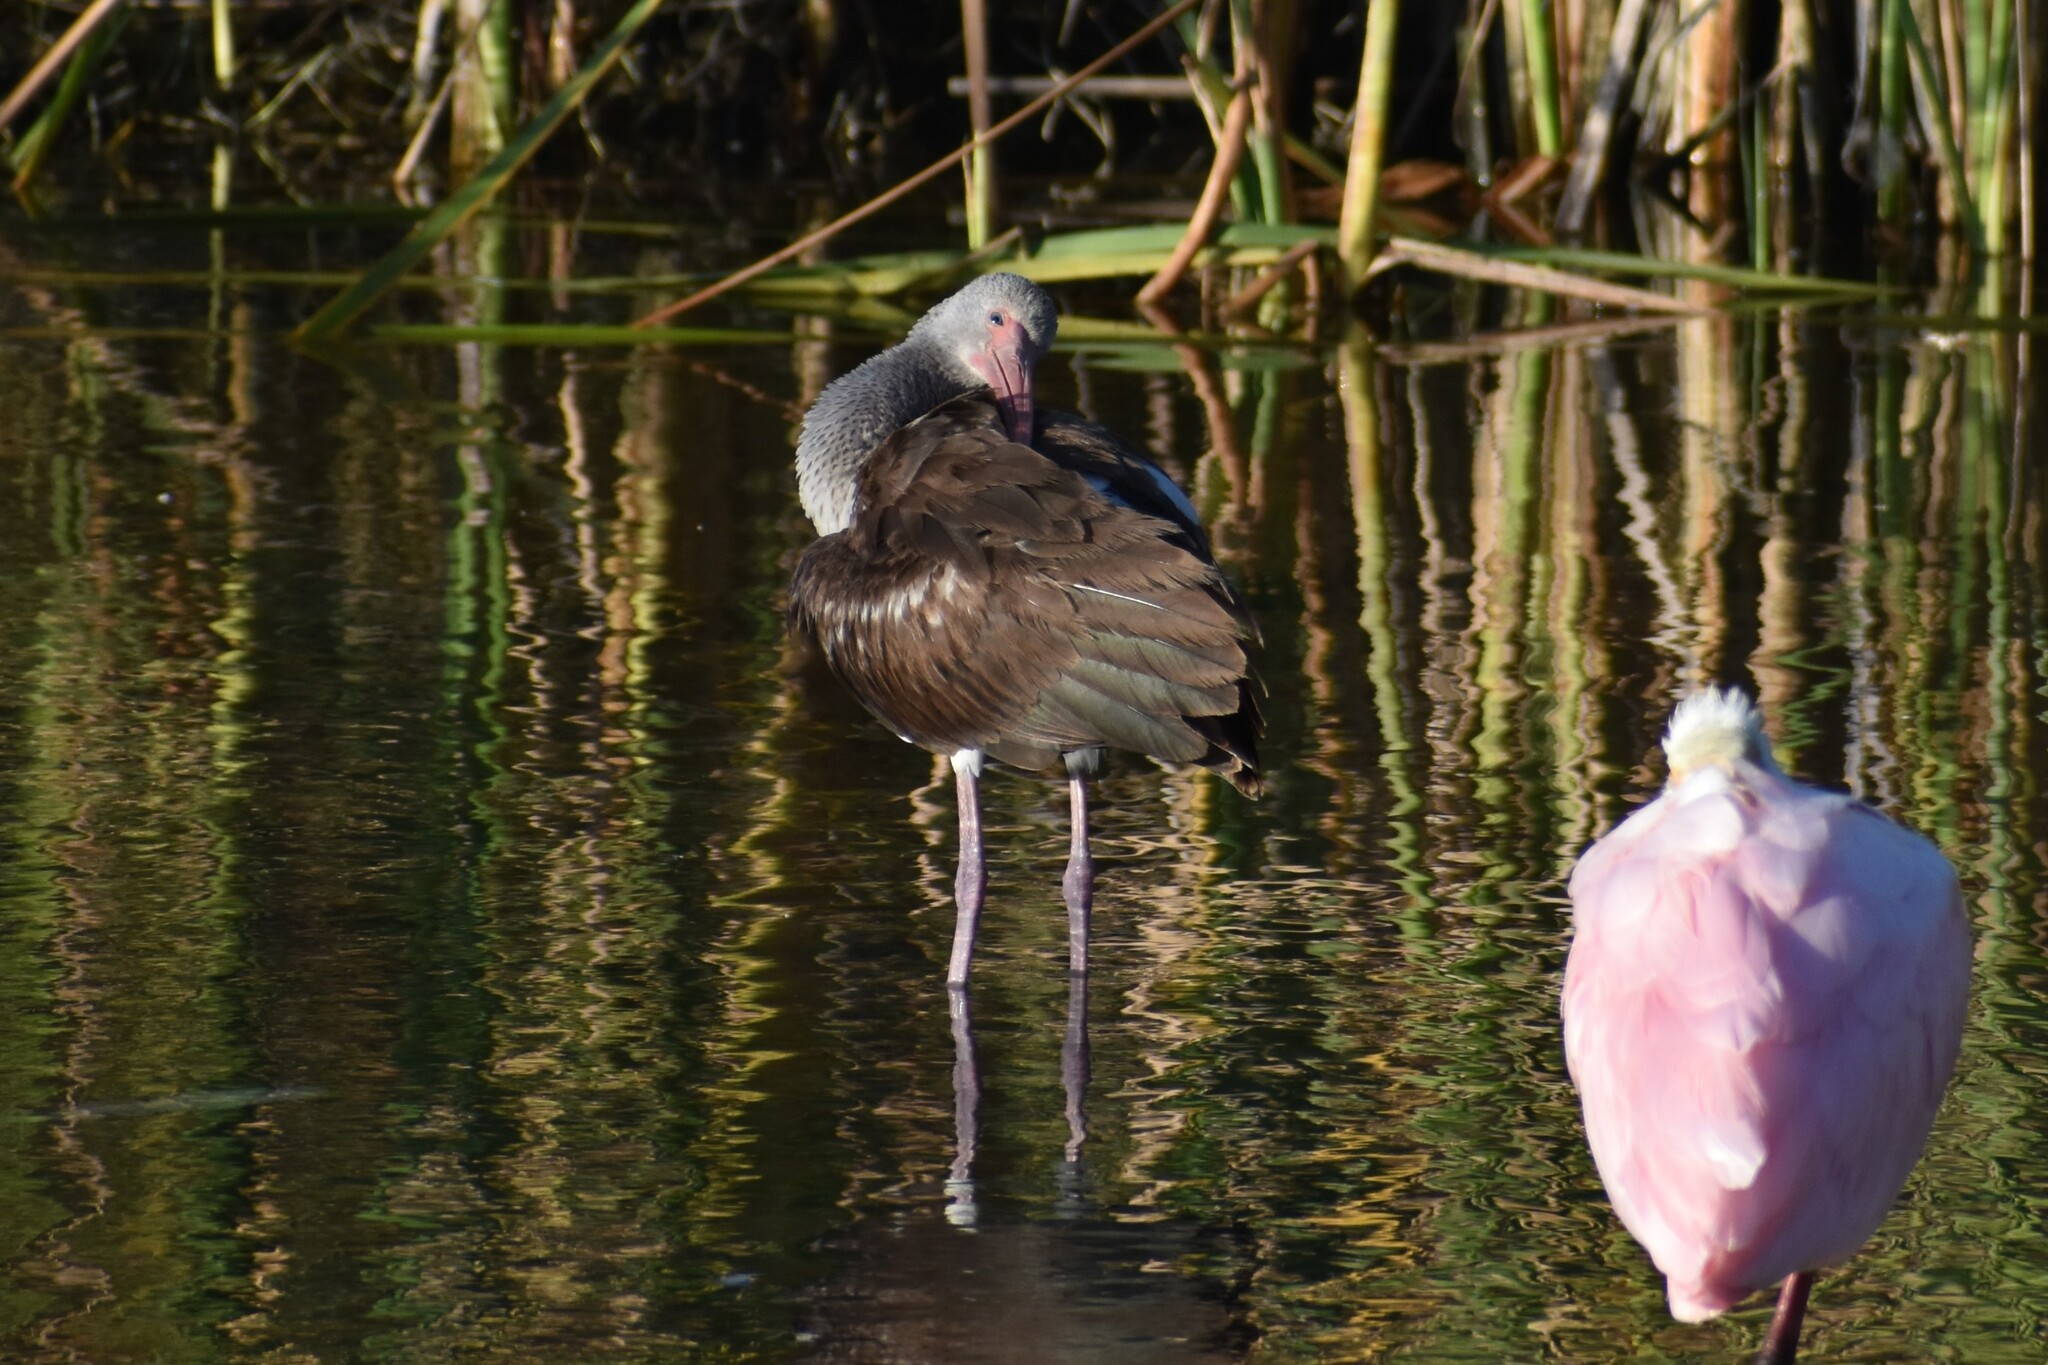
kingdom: Animalia
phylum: Chordata
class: Aves
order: Pelecaniformes
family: Threskiornithidae
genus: Eudocimus
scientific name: Eudocimus albus
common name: White ibis
